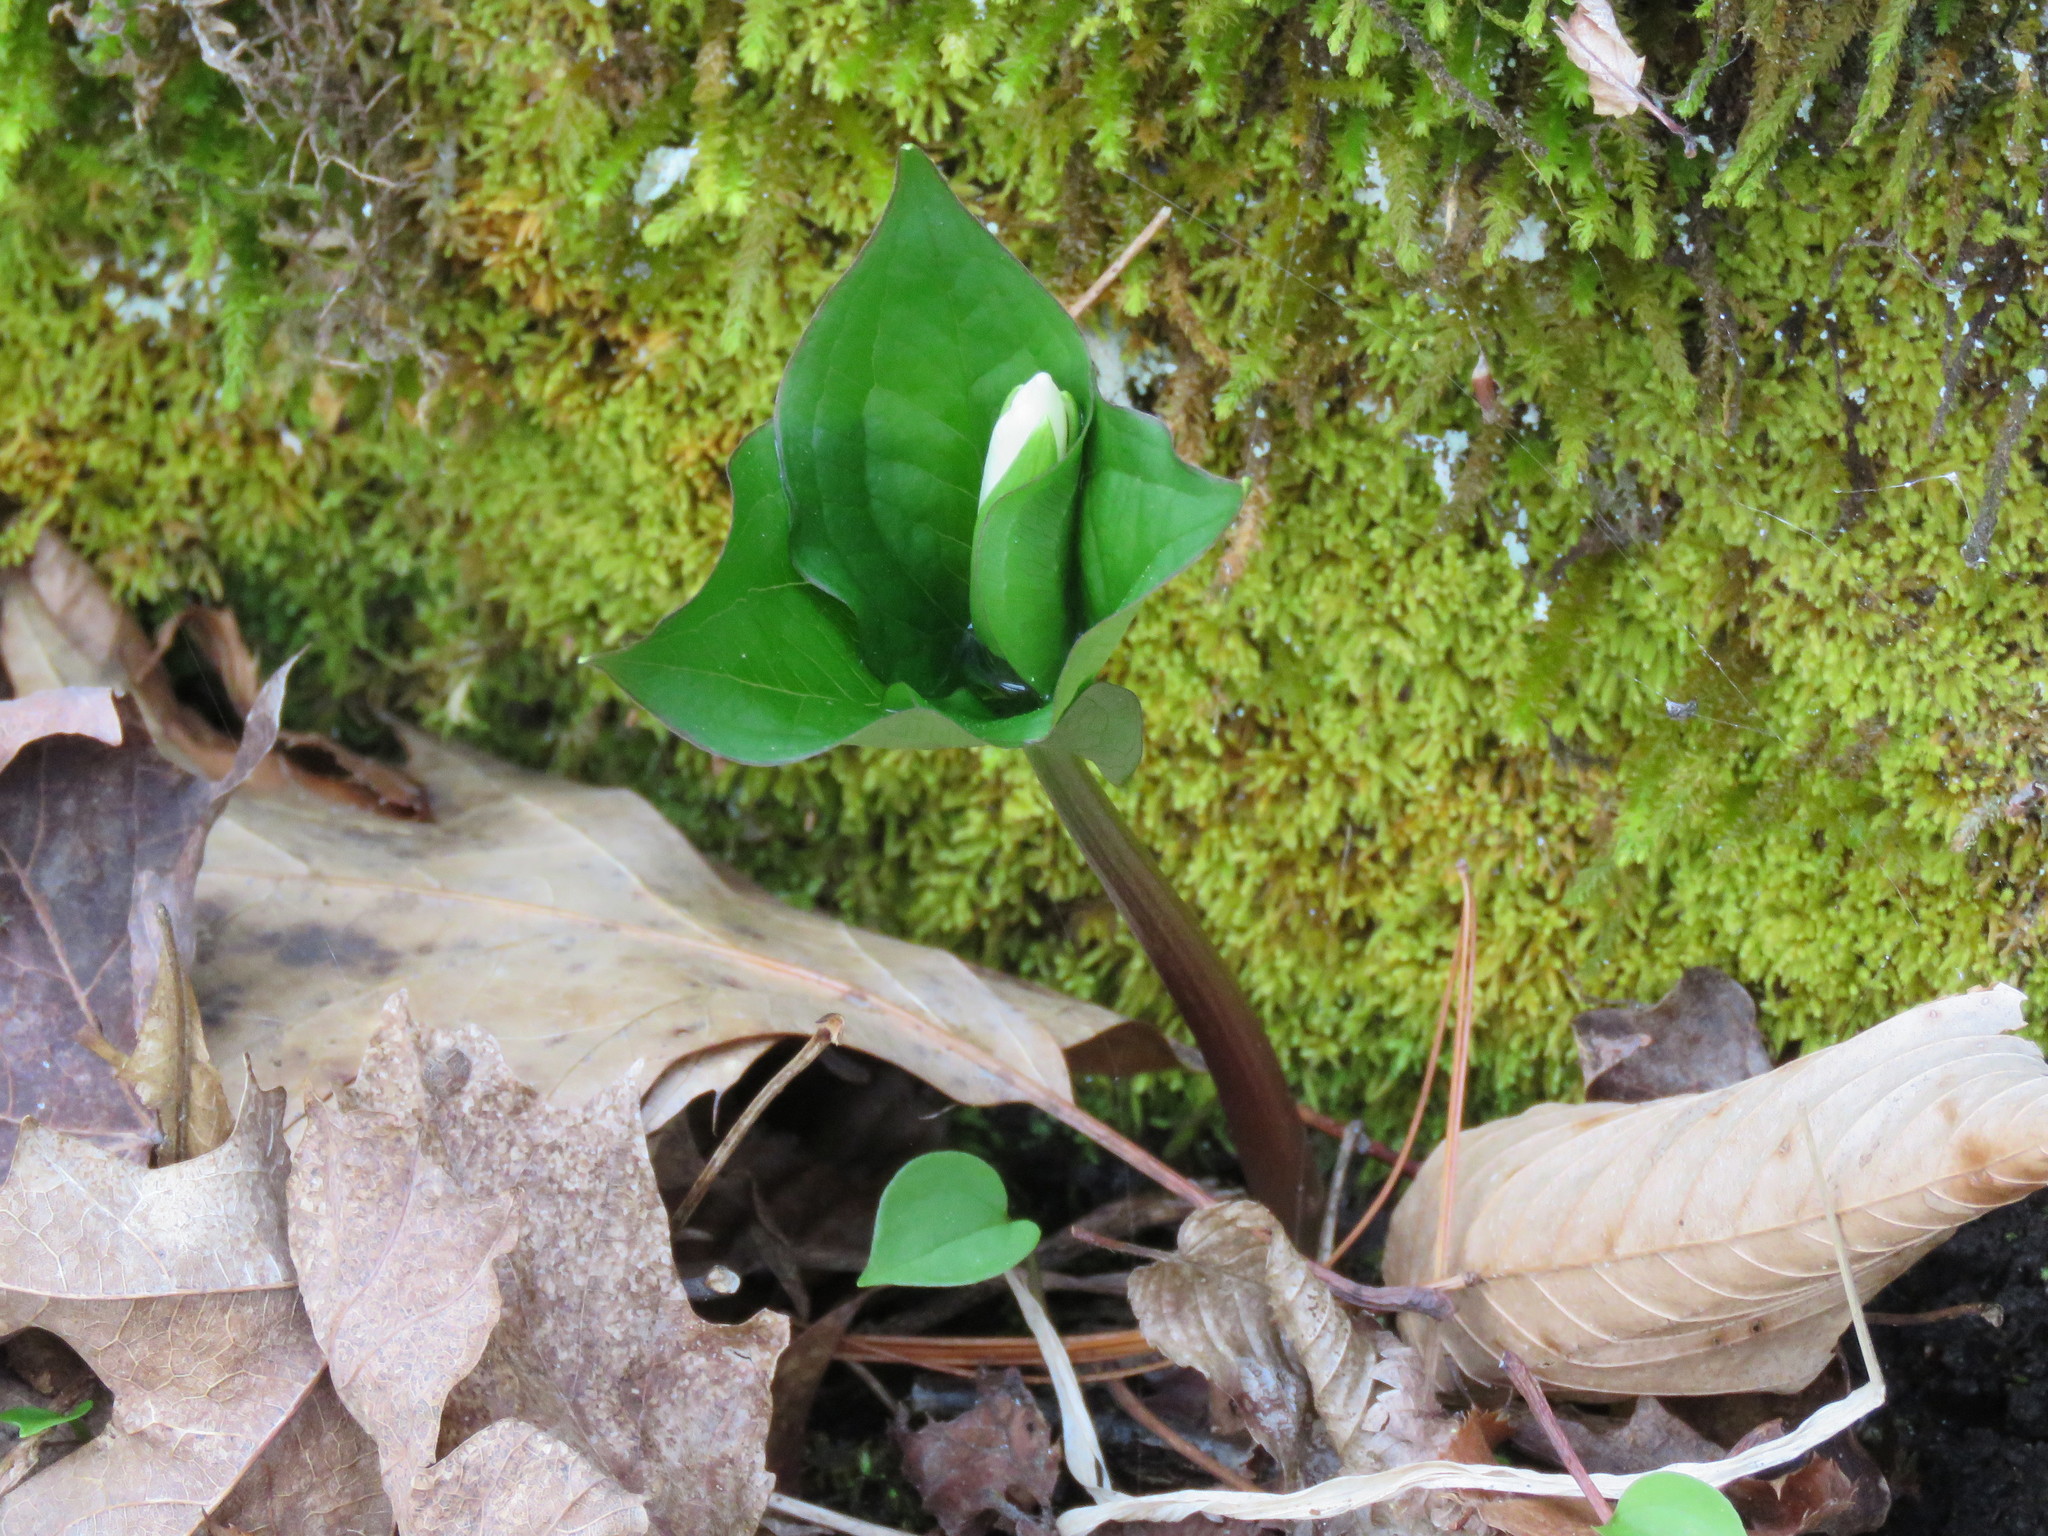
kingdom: Plantae
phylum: Tracheophyta
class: Liliopsida
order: Liliales
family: Melanthiaceae
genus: Trillium
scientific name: Trillium grandiflorum
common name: Great white trillium
